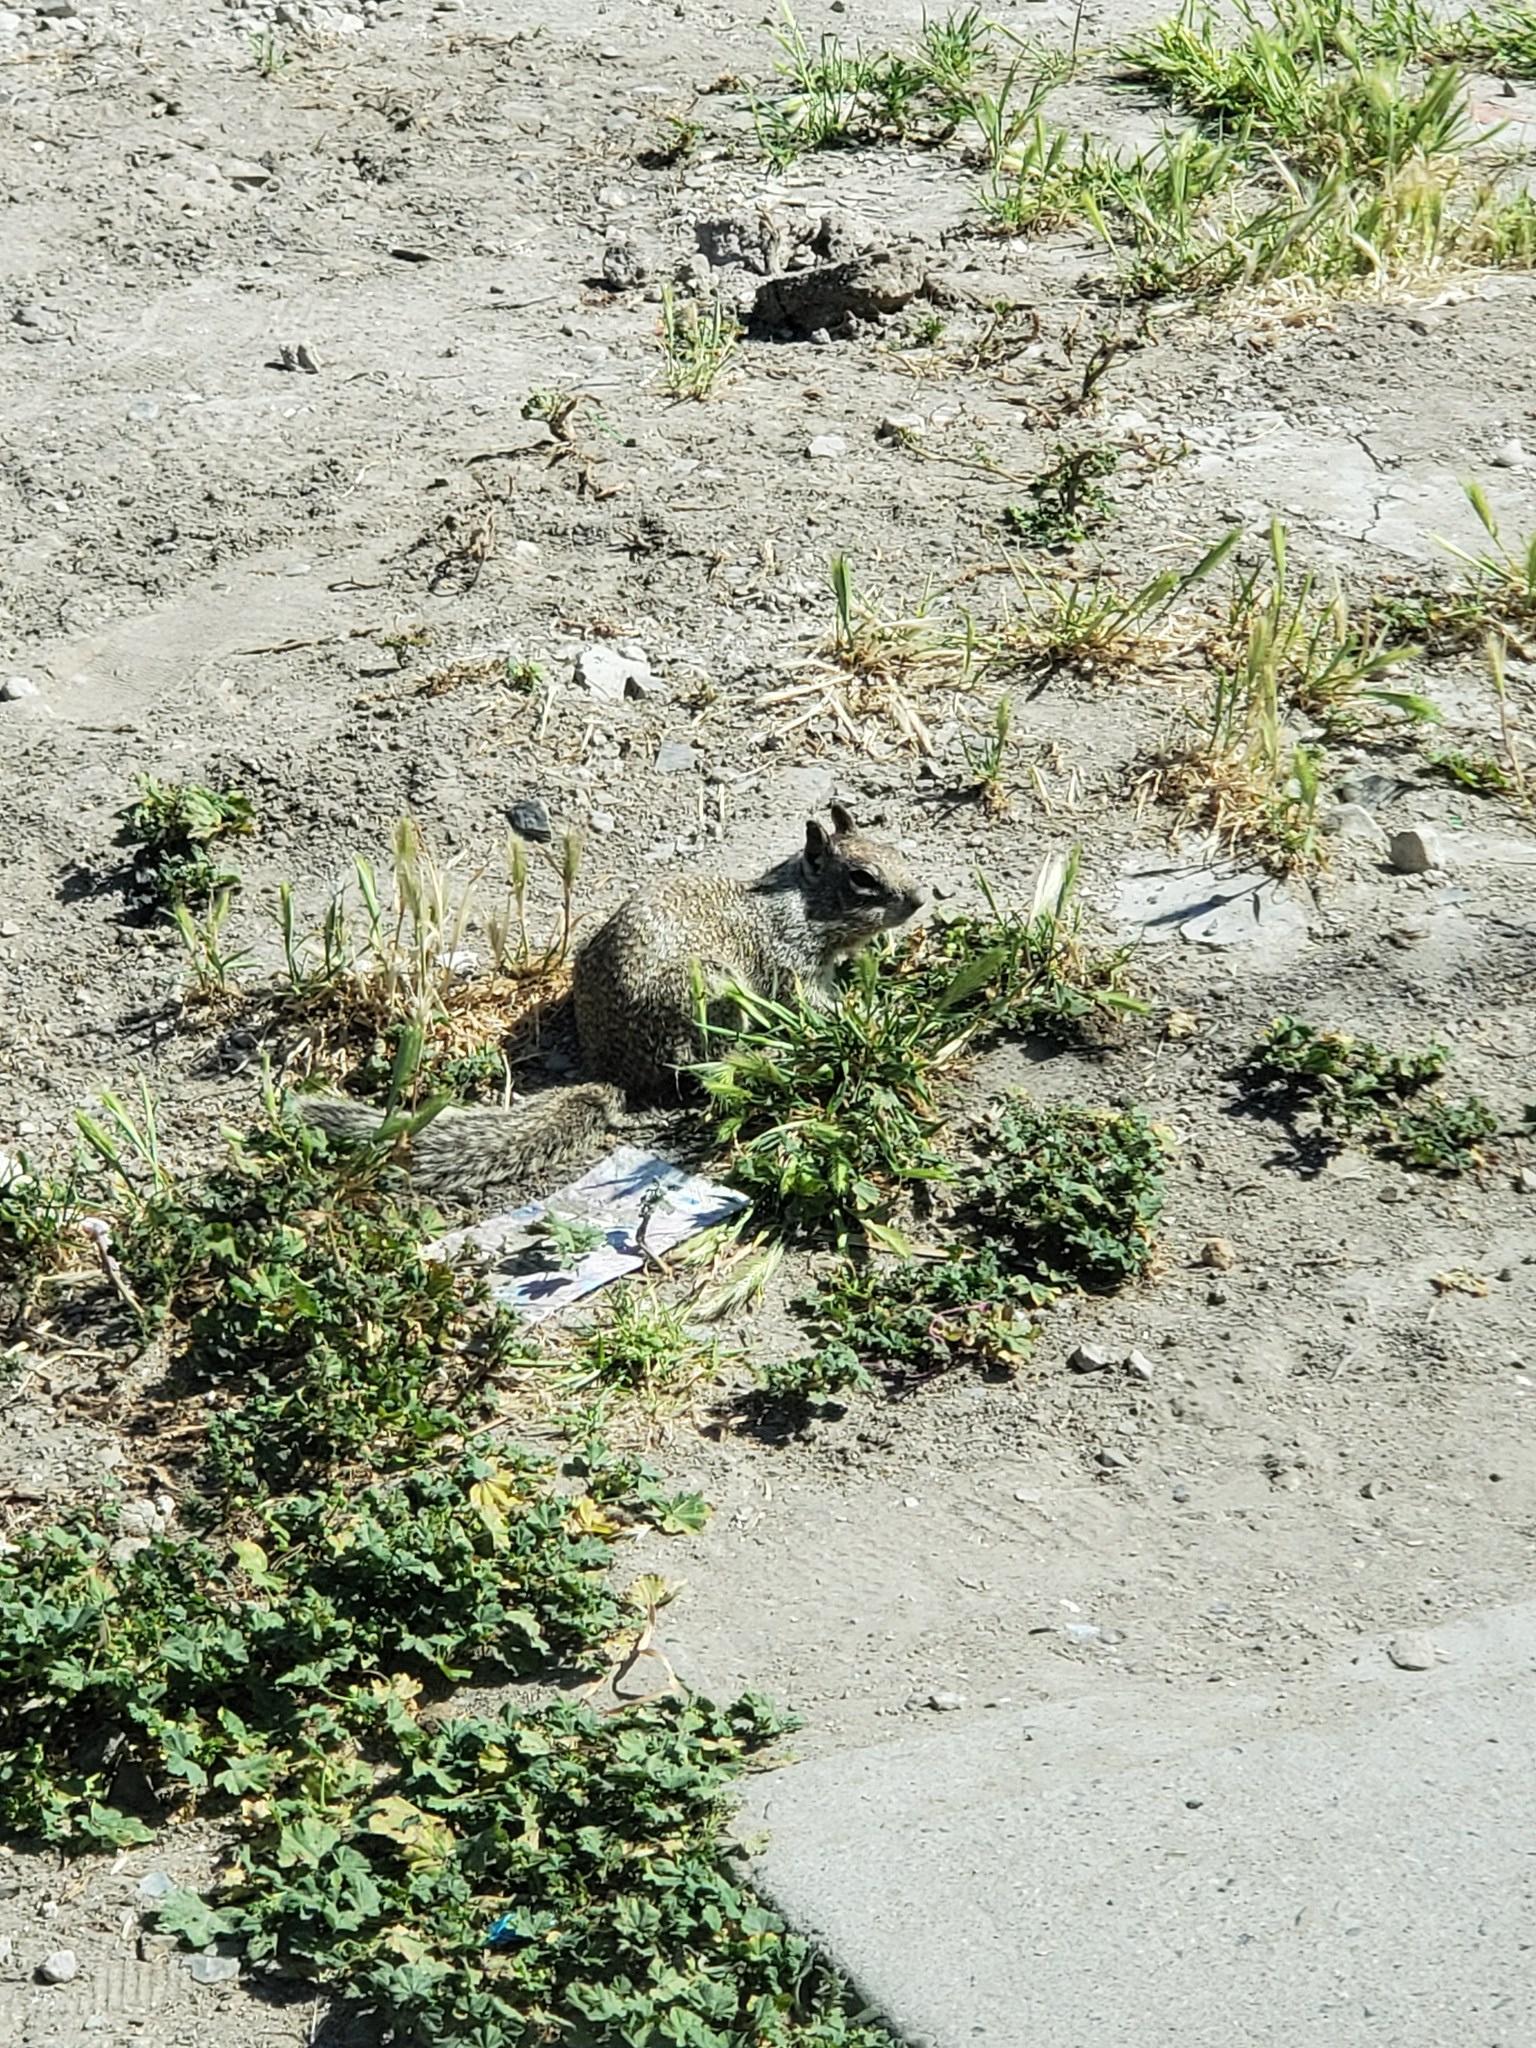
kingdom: Animalia
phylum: Chordata
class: Mammalia
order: Rodentia
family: Sciuridae
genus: Otospermophilus
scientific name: Otospermophilus beecheyi
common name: California ground squirrel
